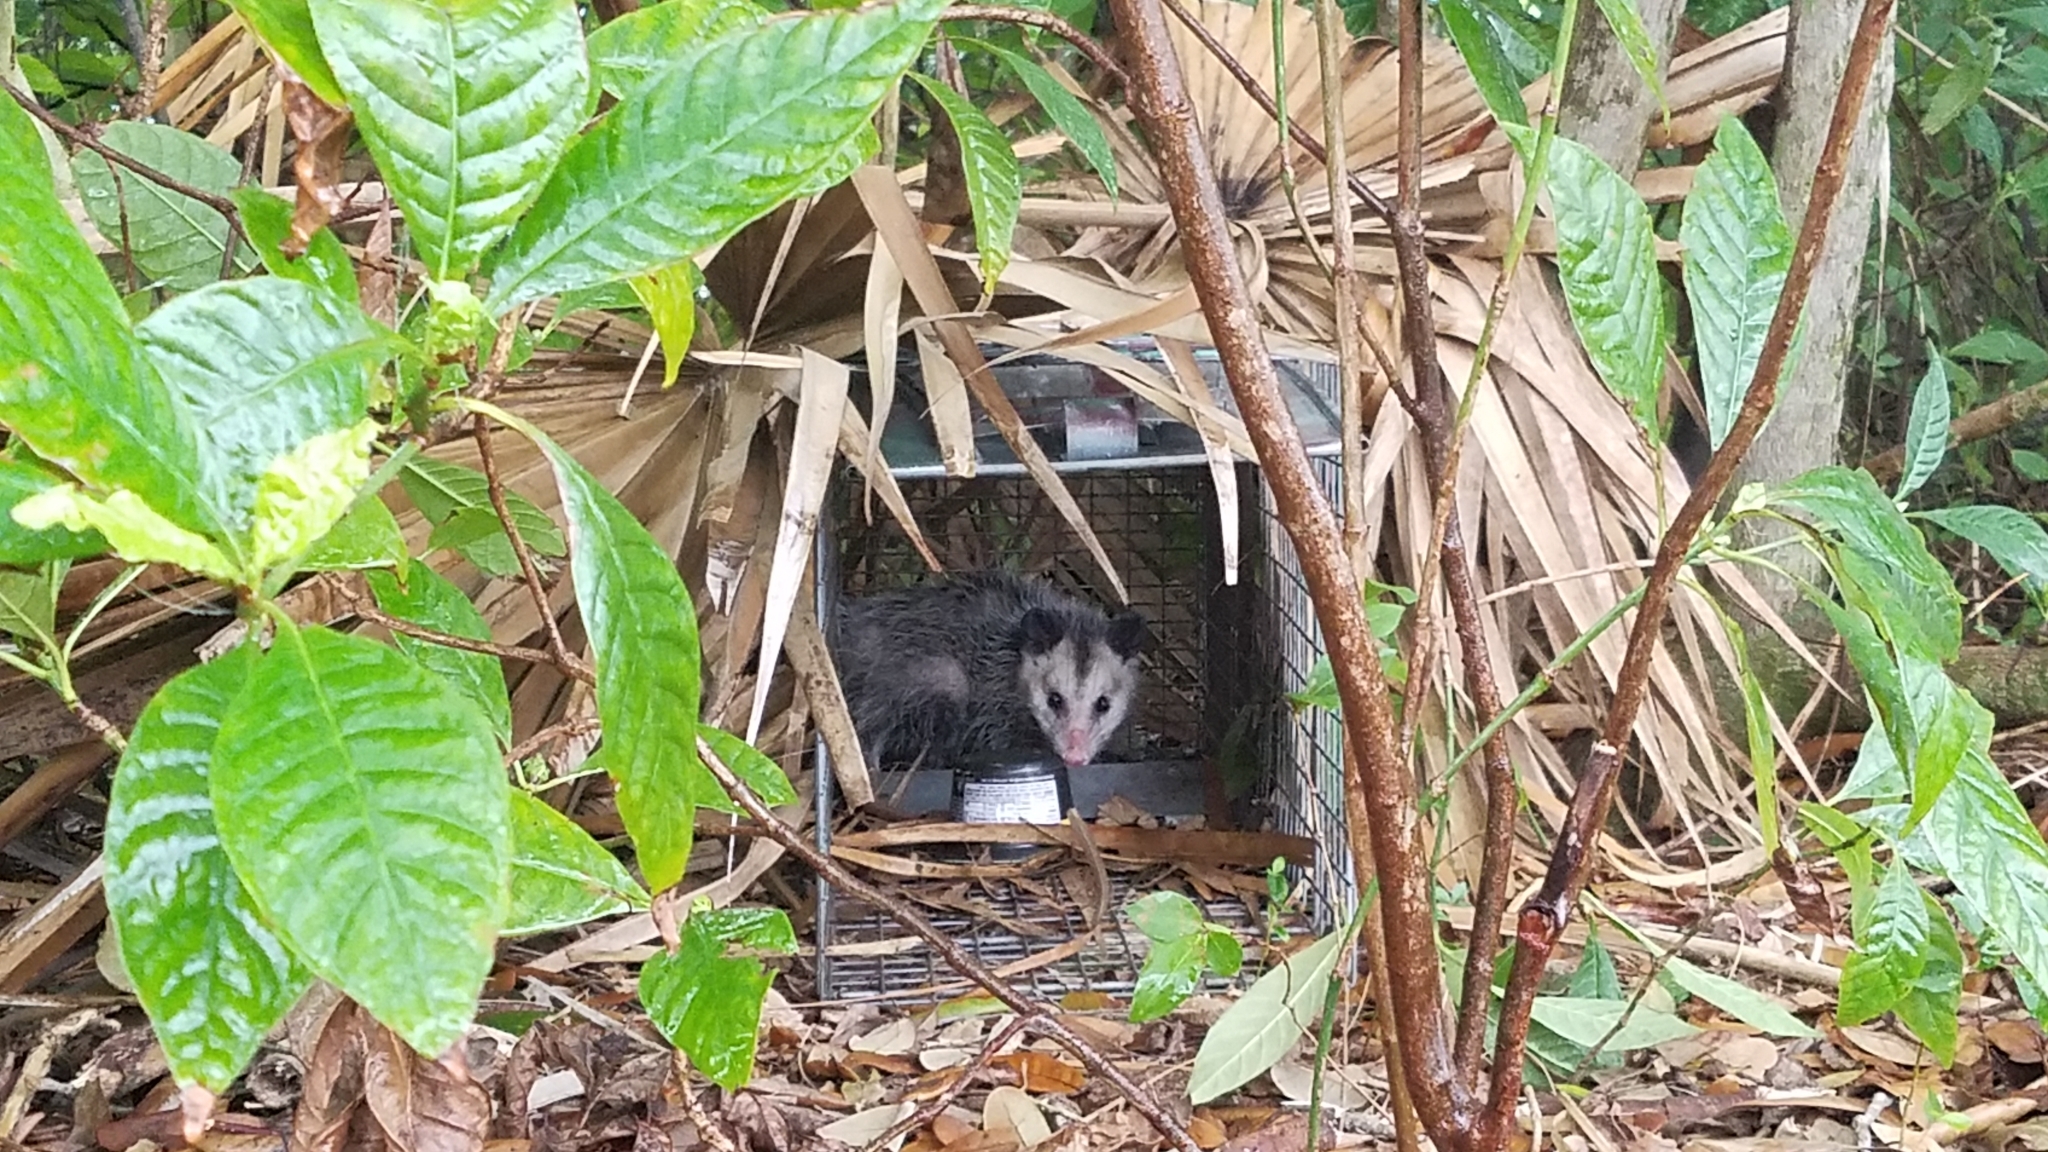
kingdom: Animalia
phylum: Chordata
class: Mammalia
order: Didelphimorphia
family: Didelphidae
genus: Didelphis
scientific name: Didelphis virginiana
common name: Virginia opossum
